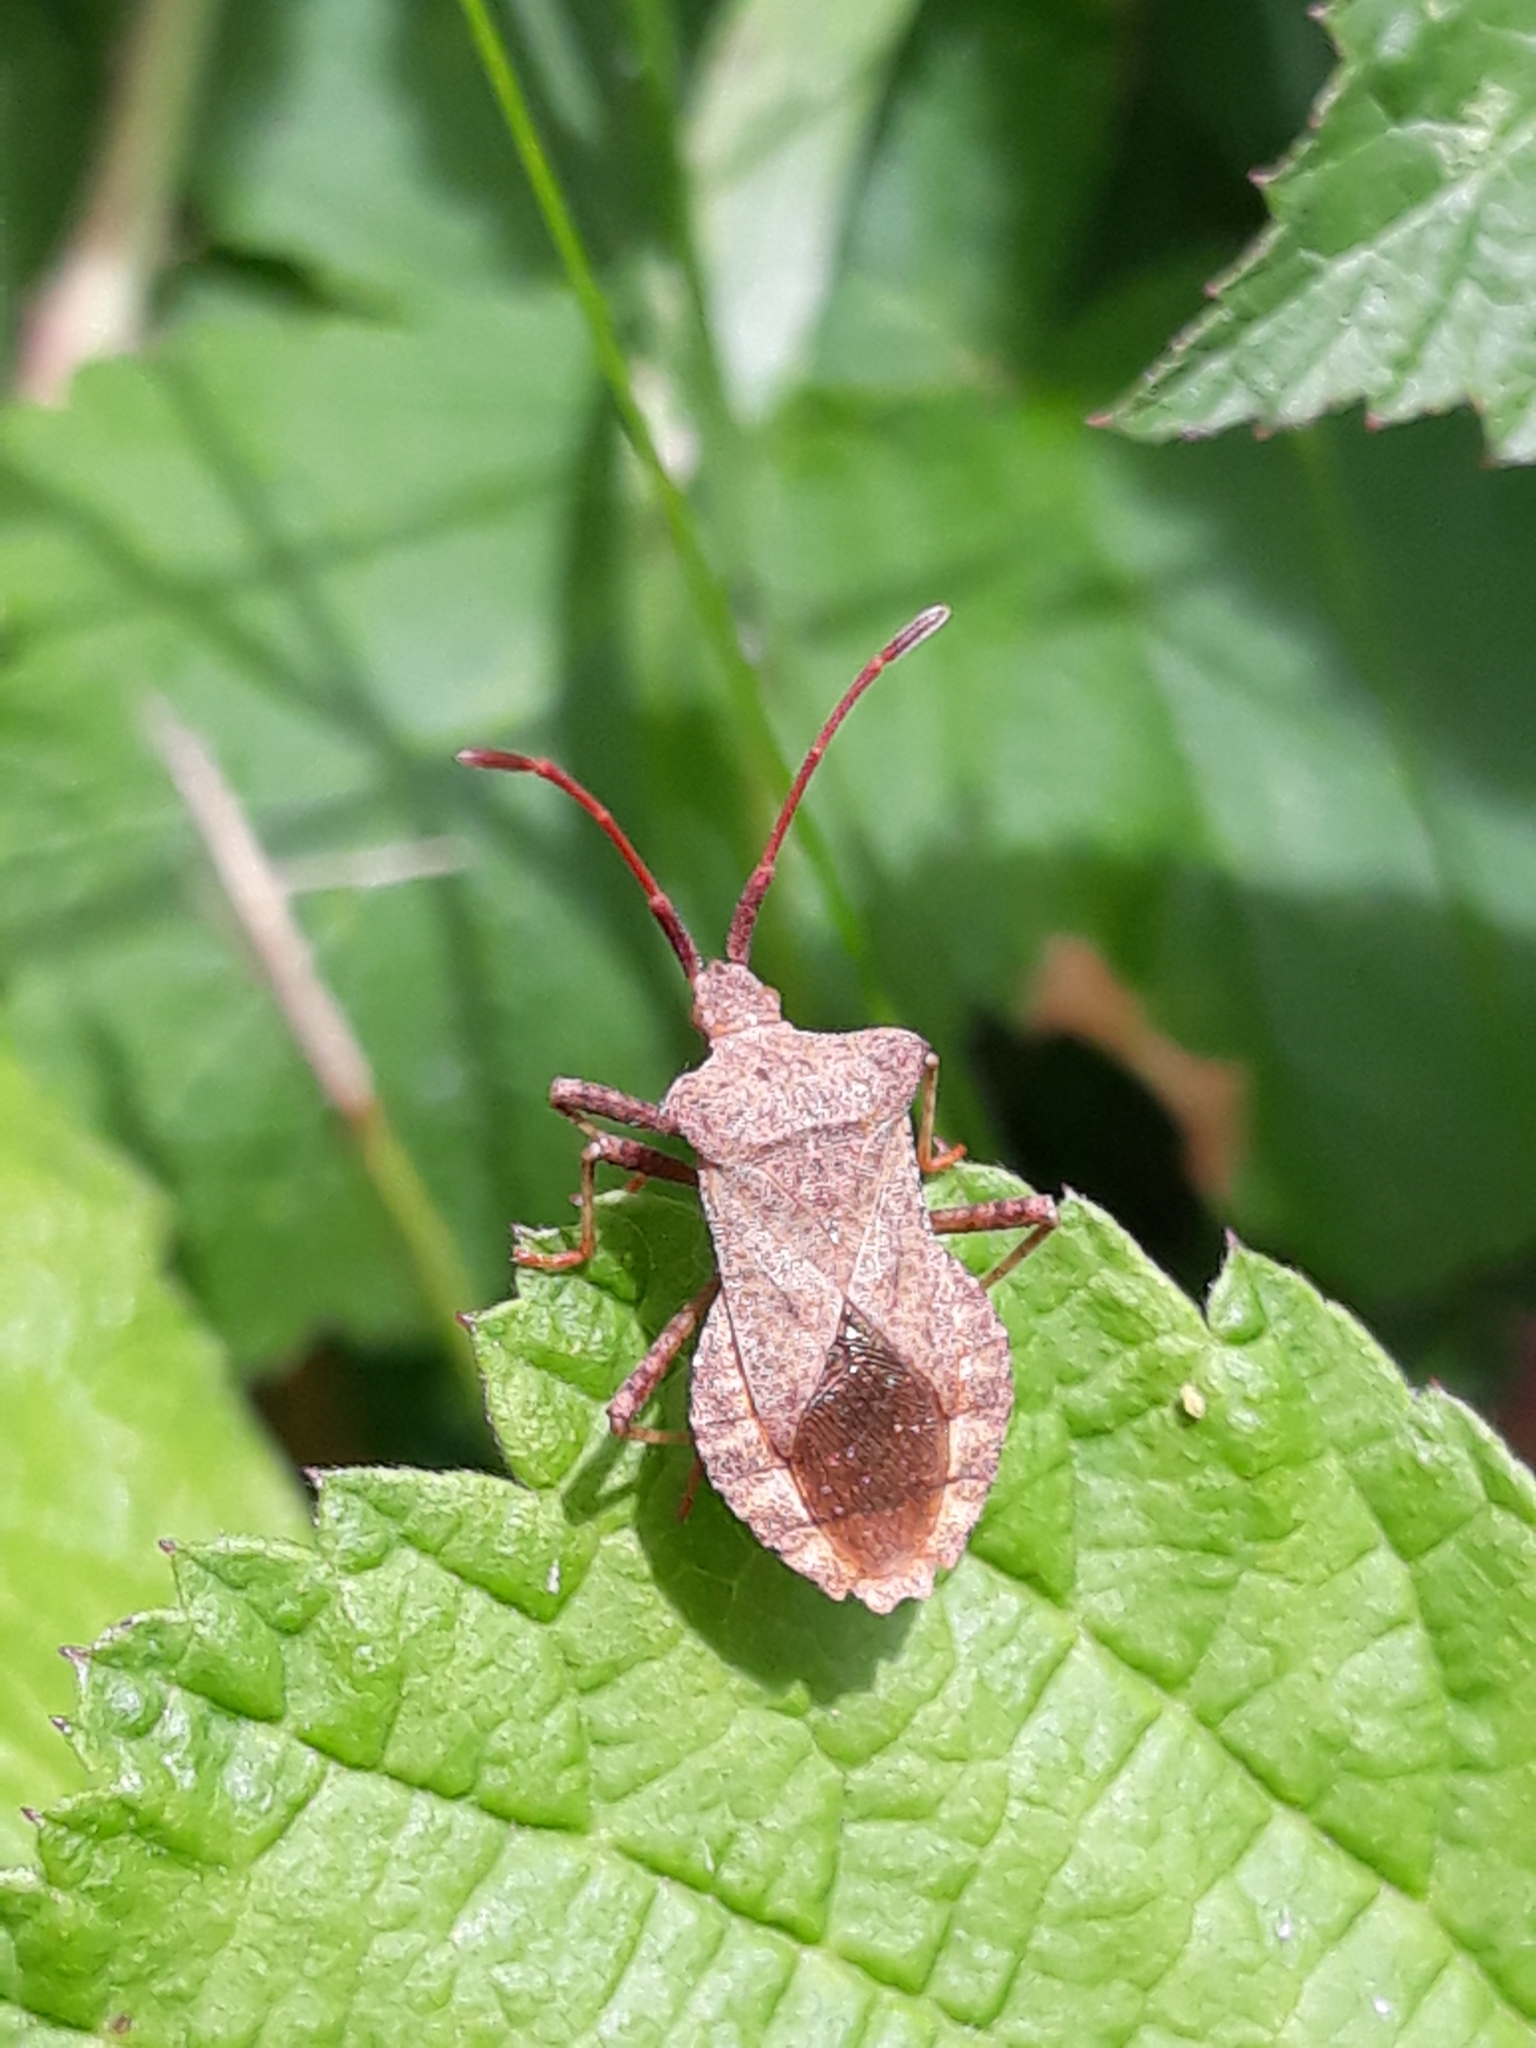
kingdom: Animalia
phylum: Arthropoda
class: Insecta
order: Hemiptera
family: Coreidae
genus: Coreus
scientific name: Coreus marginatus
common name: Dock bug
